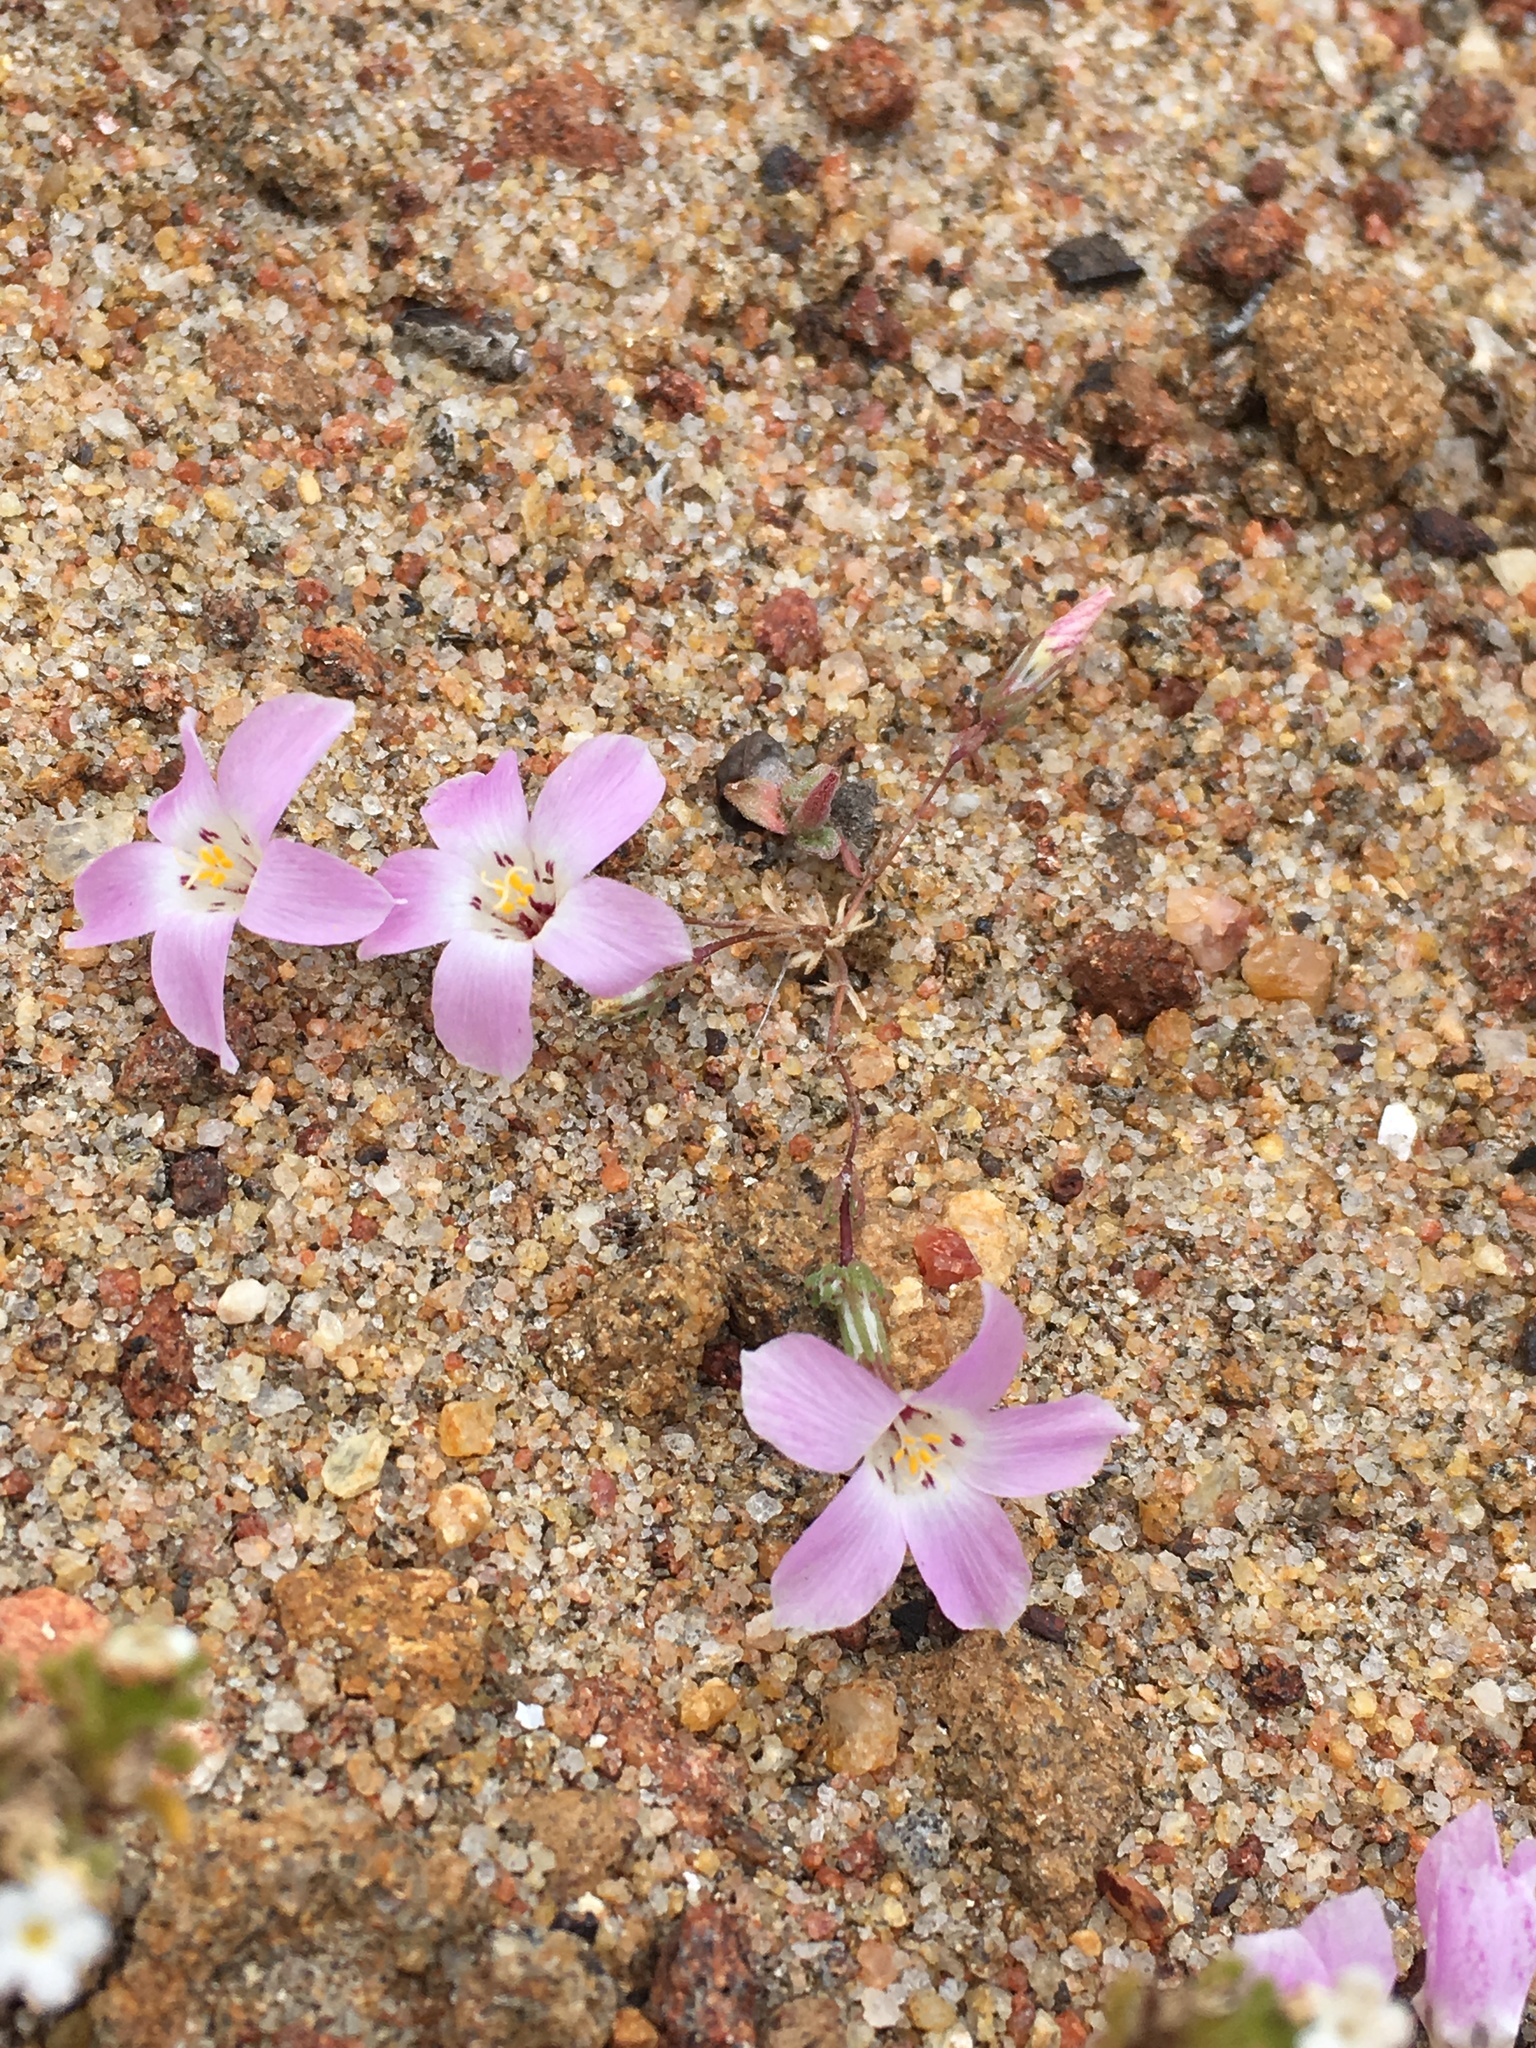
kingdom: Plantae
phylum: Tracheophyta
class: Magnoliopsida
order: Ericales
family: Polemoniaceae
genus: Linanthus
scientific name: Linanthus orcuttii
